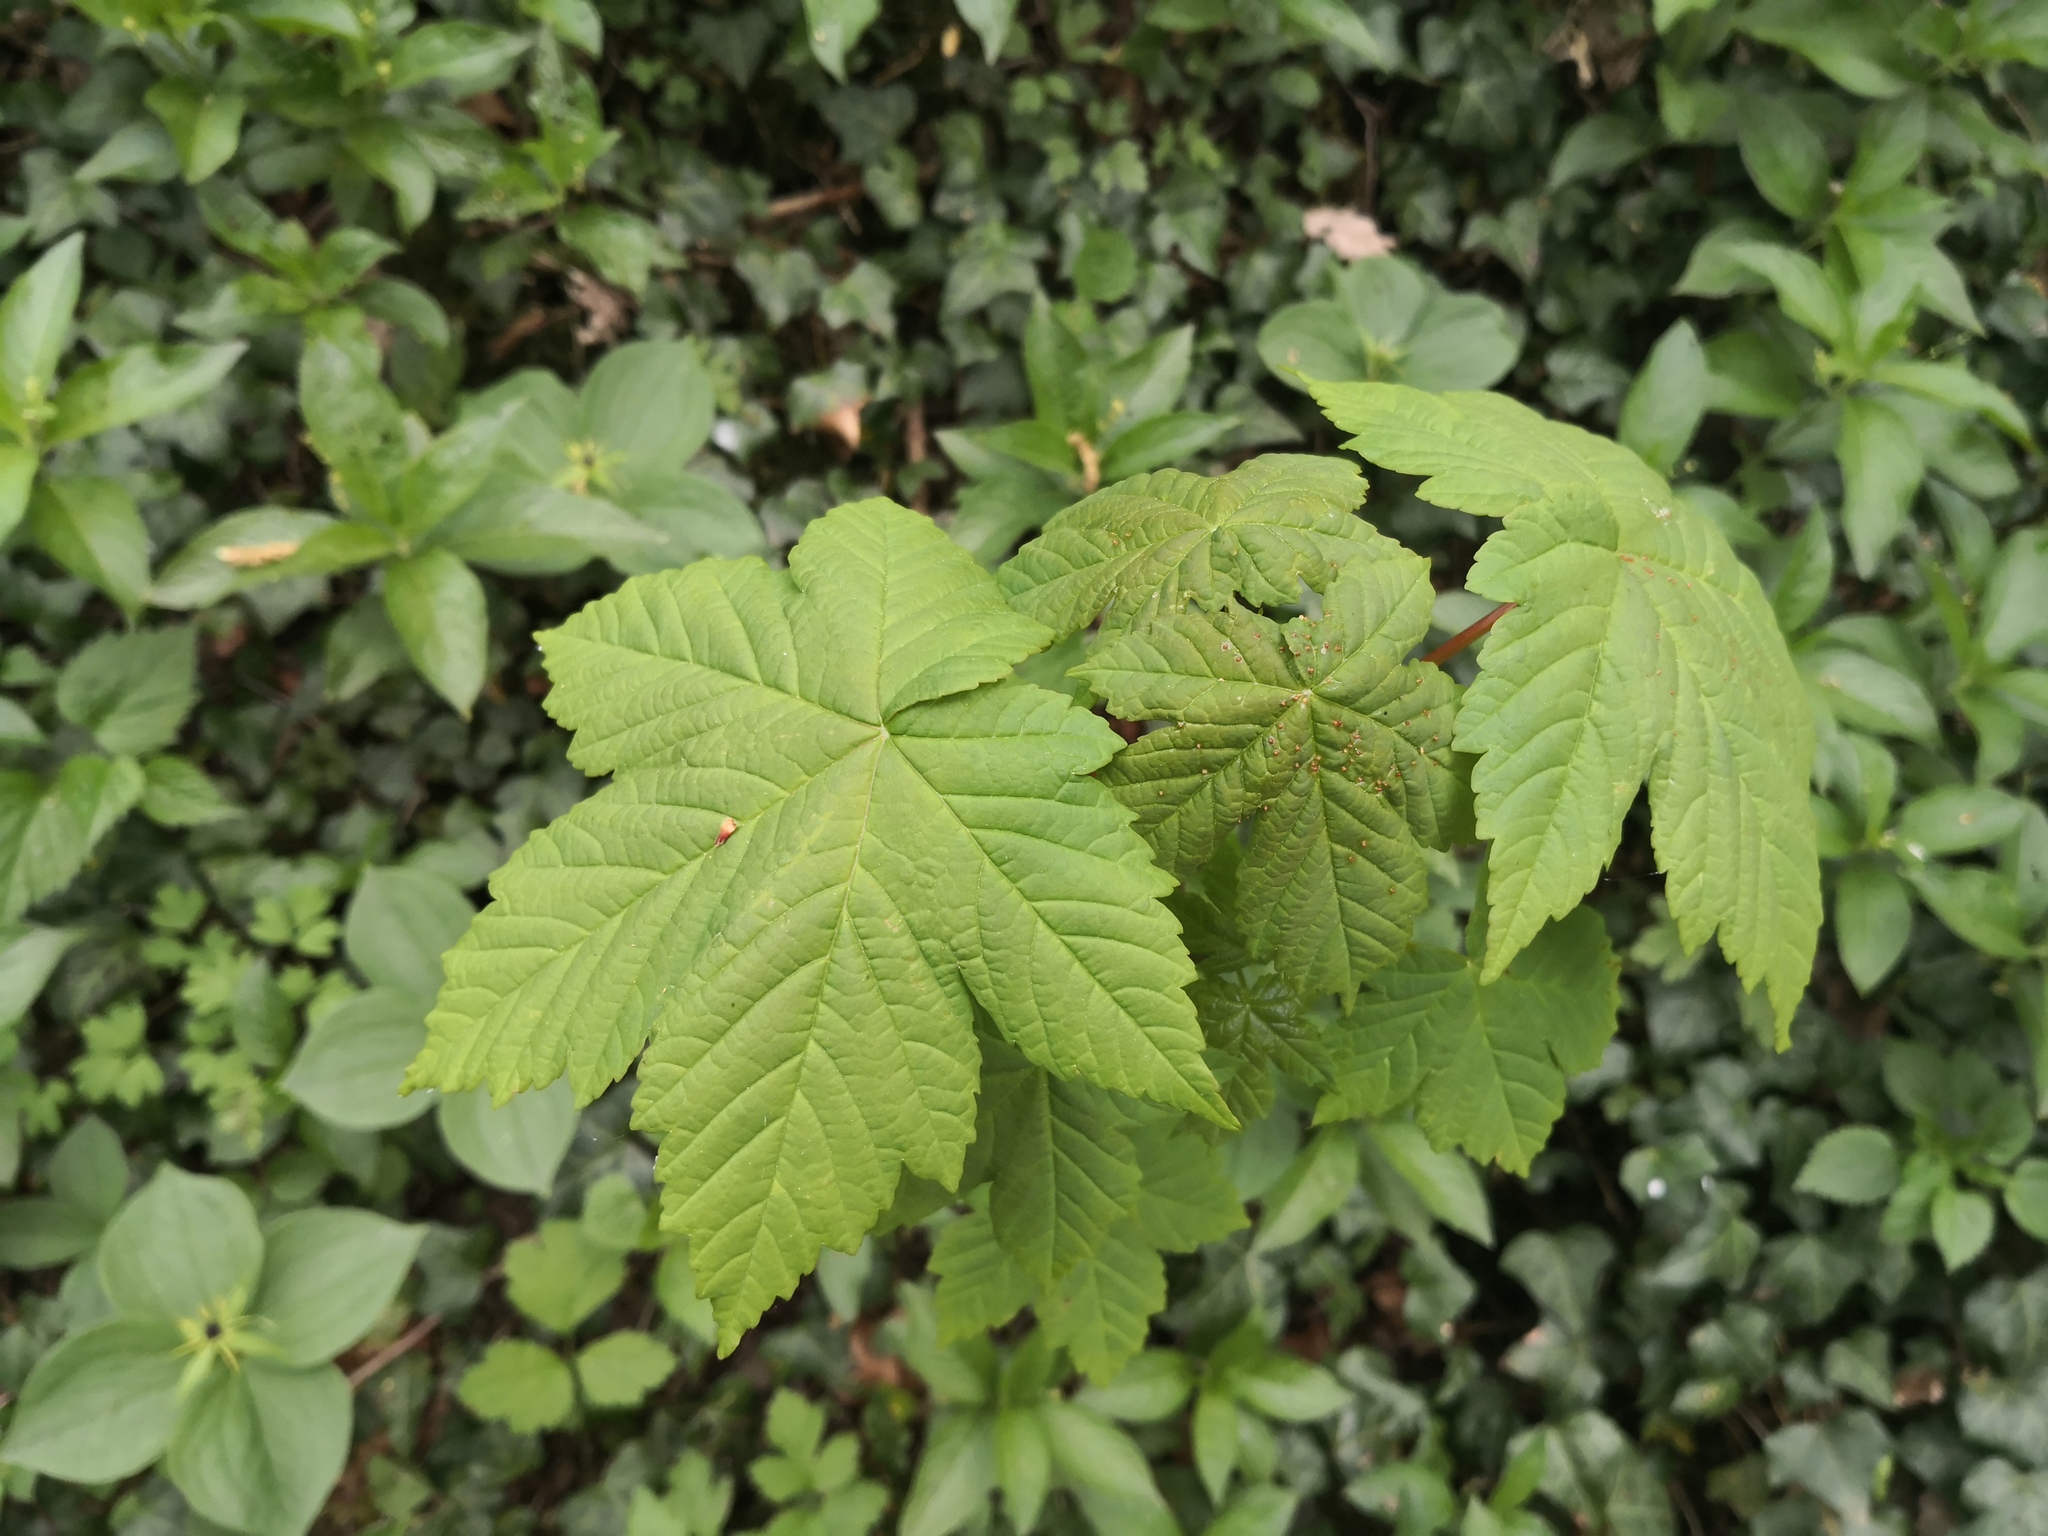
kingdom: Plantae
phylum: Tracheophyta
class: Magnoliopsida
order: Sapindales
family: Sapindaceae
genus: Acer
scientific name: Acer pseudoplatanus
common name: Sycamore
